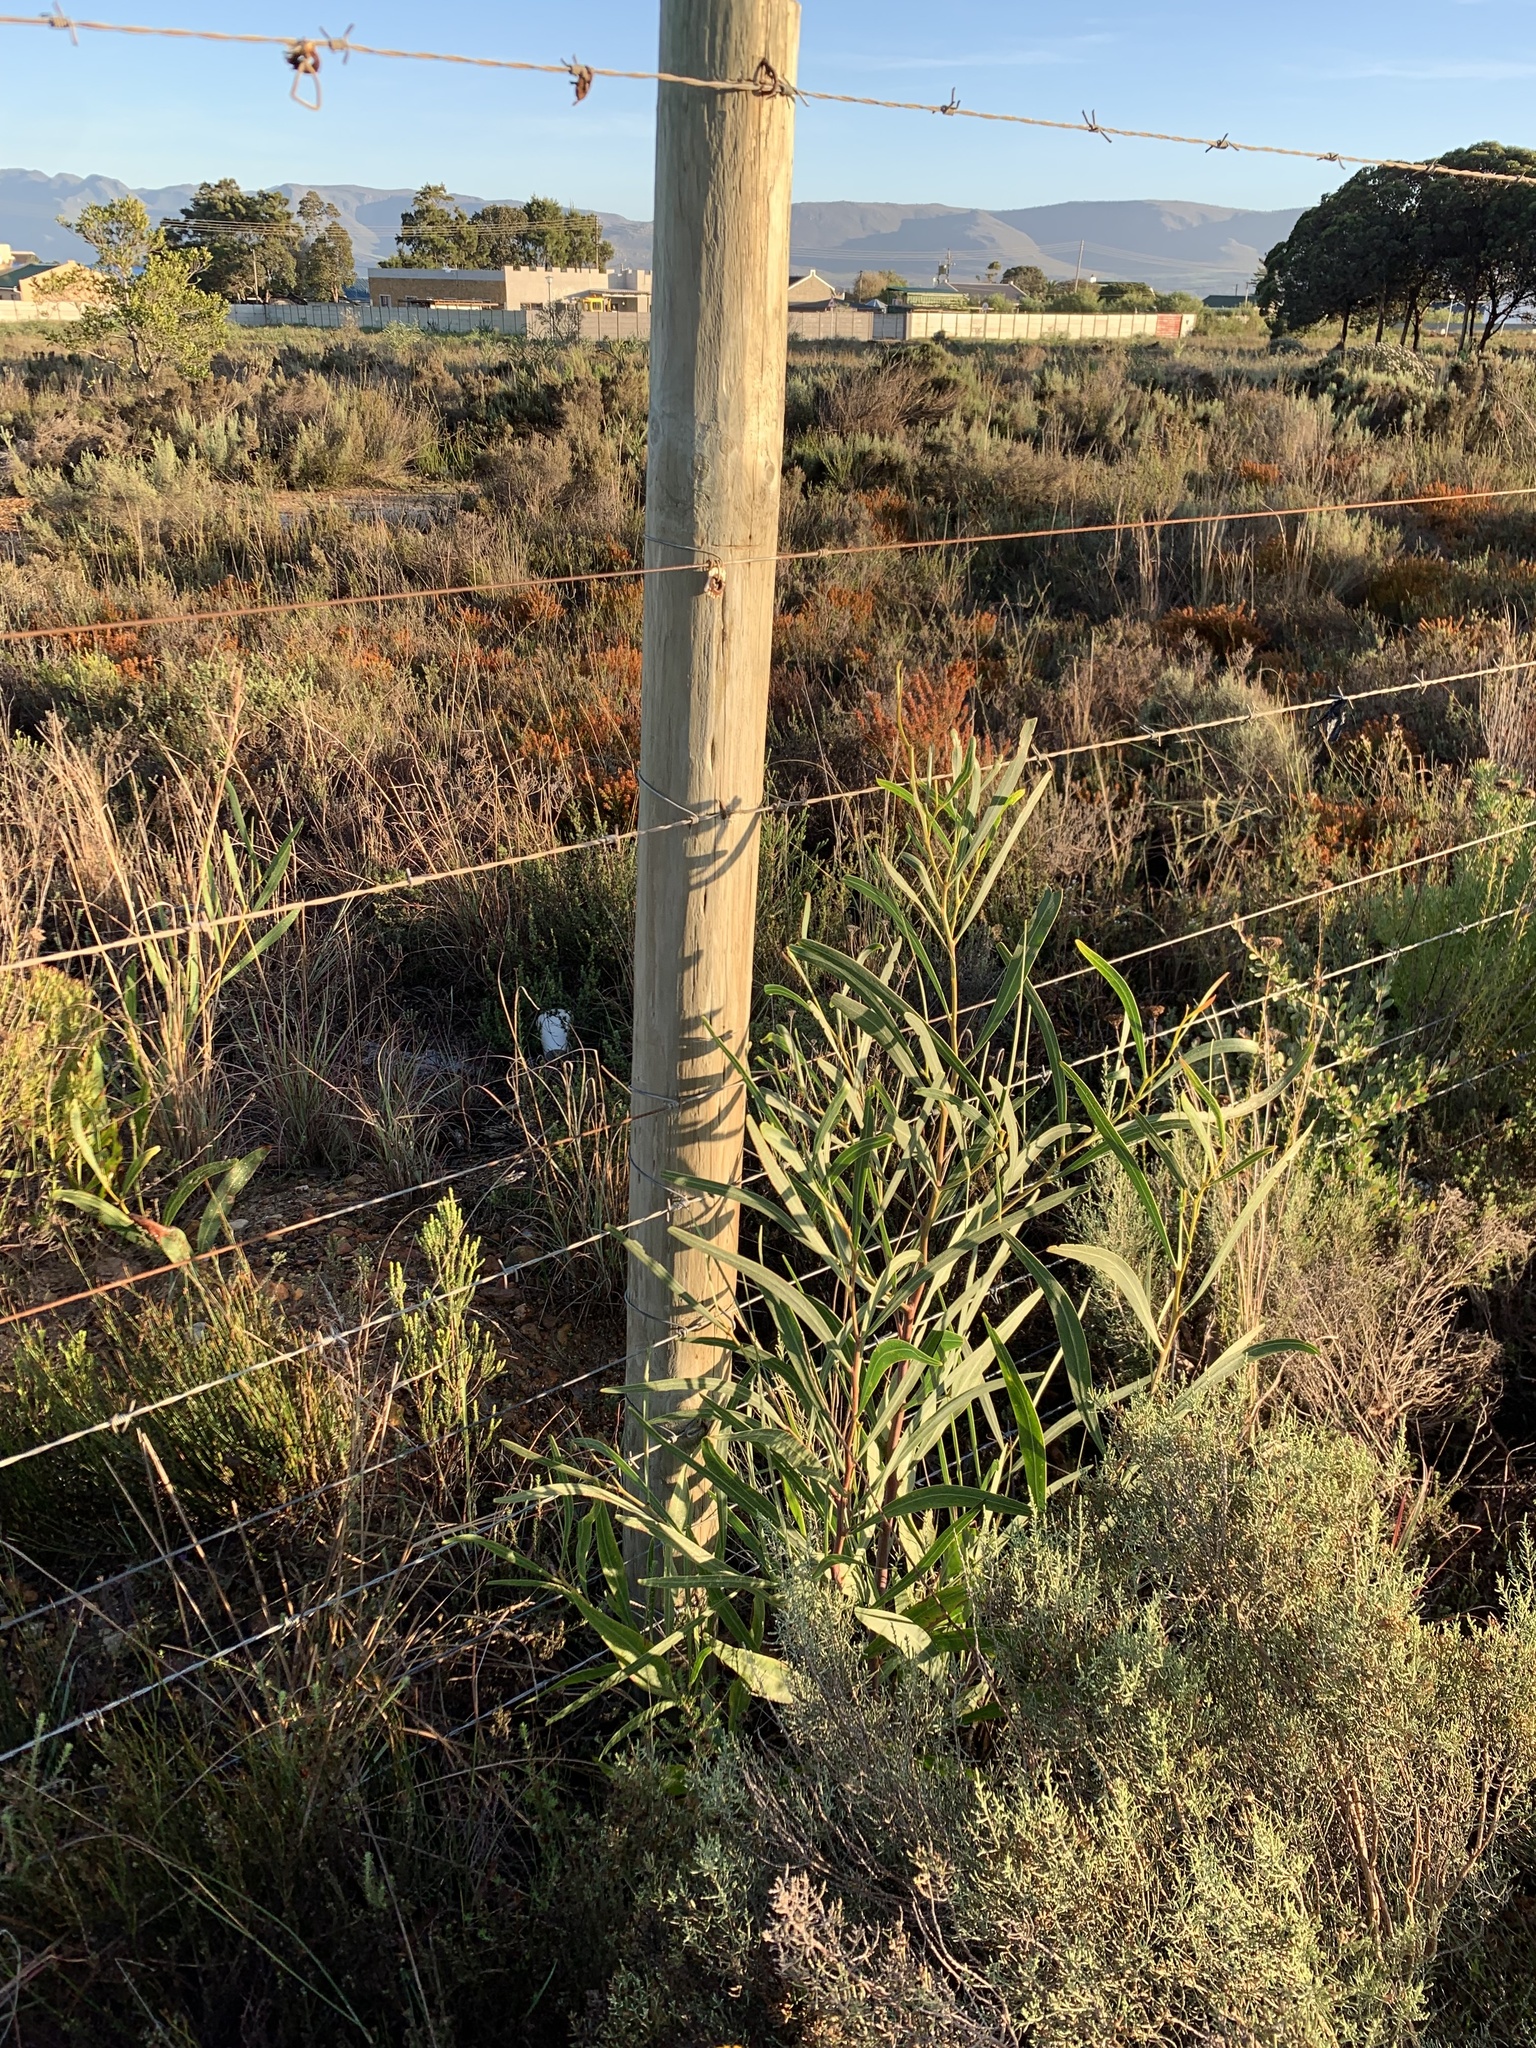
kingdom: Plantae
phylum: Tracheophyta
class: Magnoliopsida
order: Fabales
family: Fabaceae
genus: Acacia
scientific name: Acacia saligna
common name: Orange wattle
